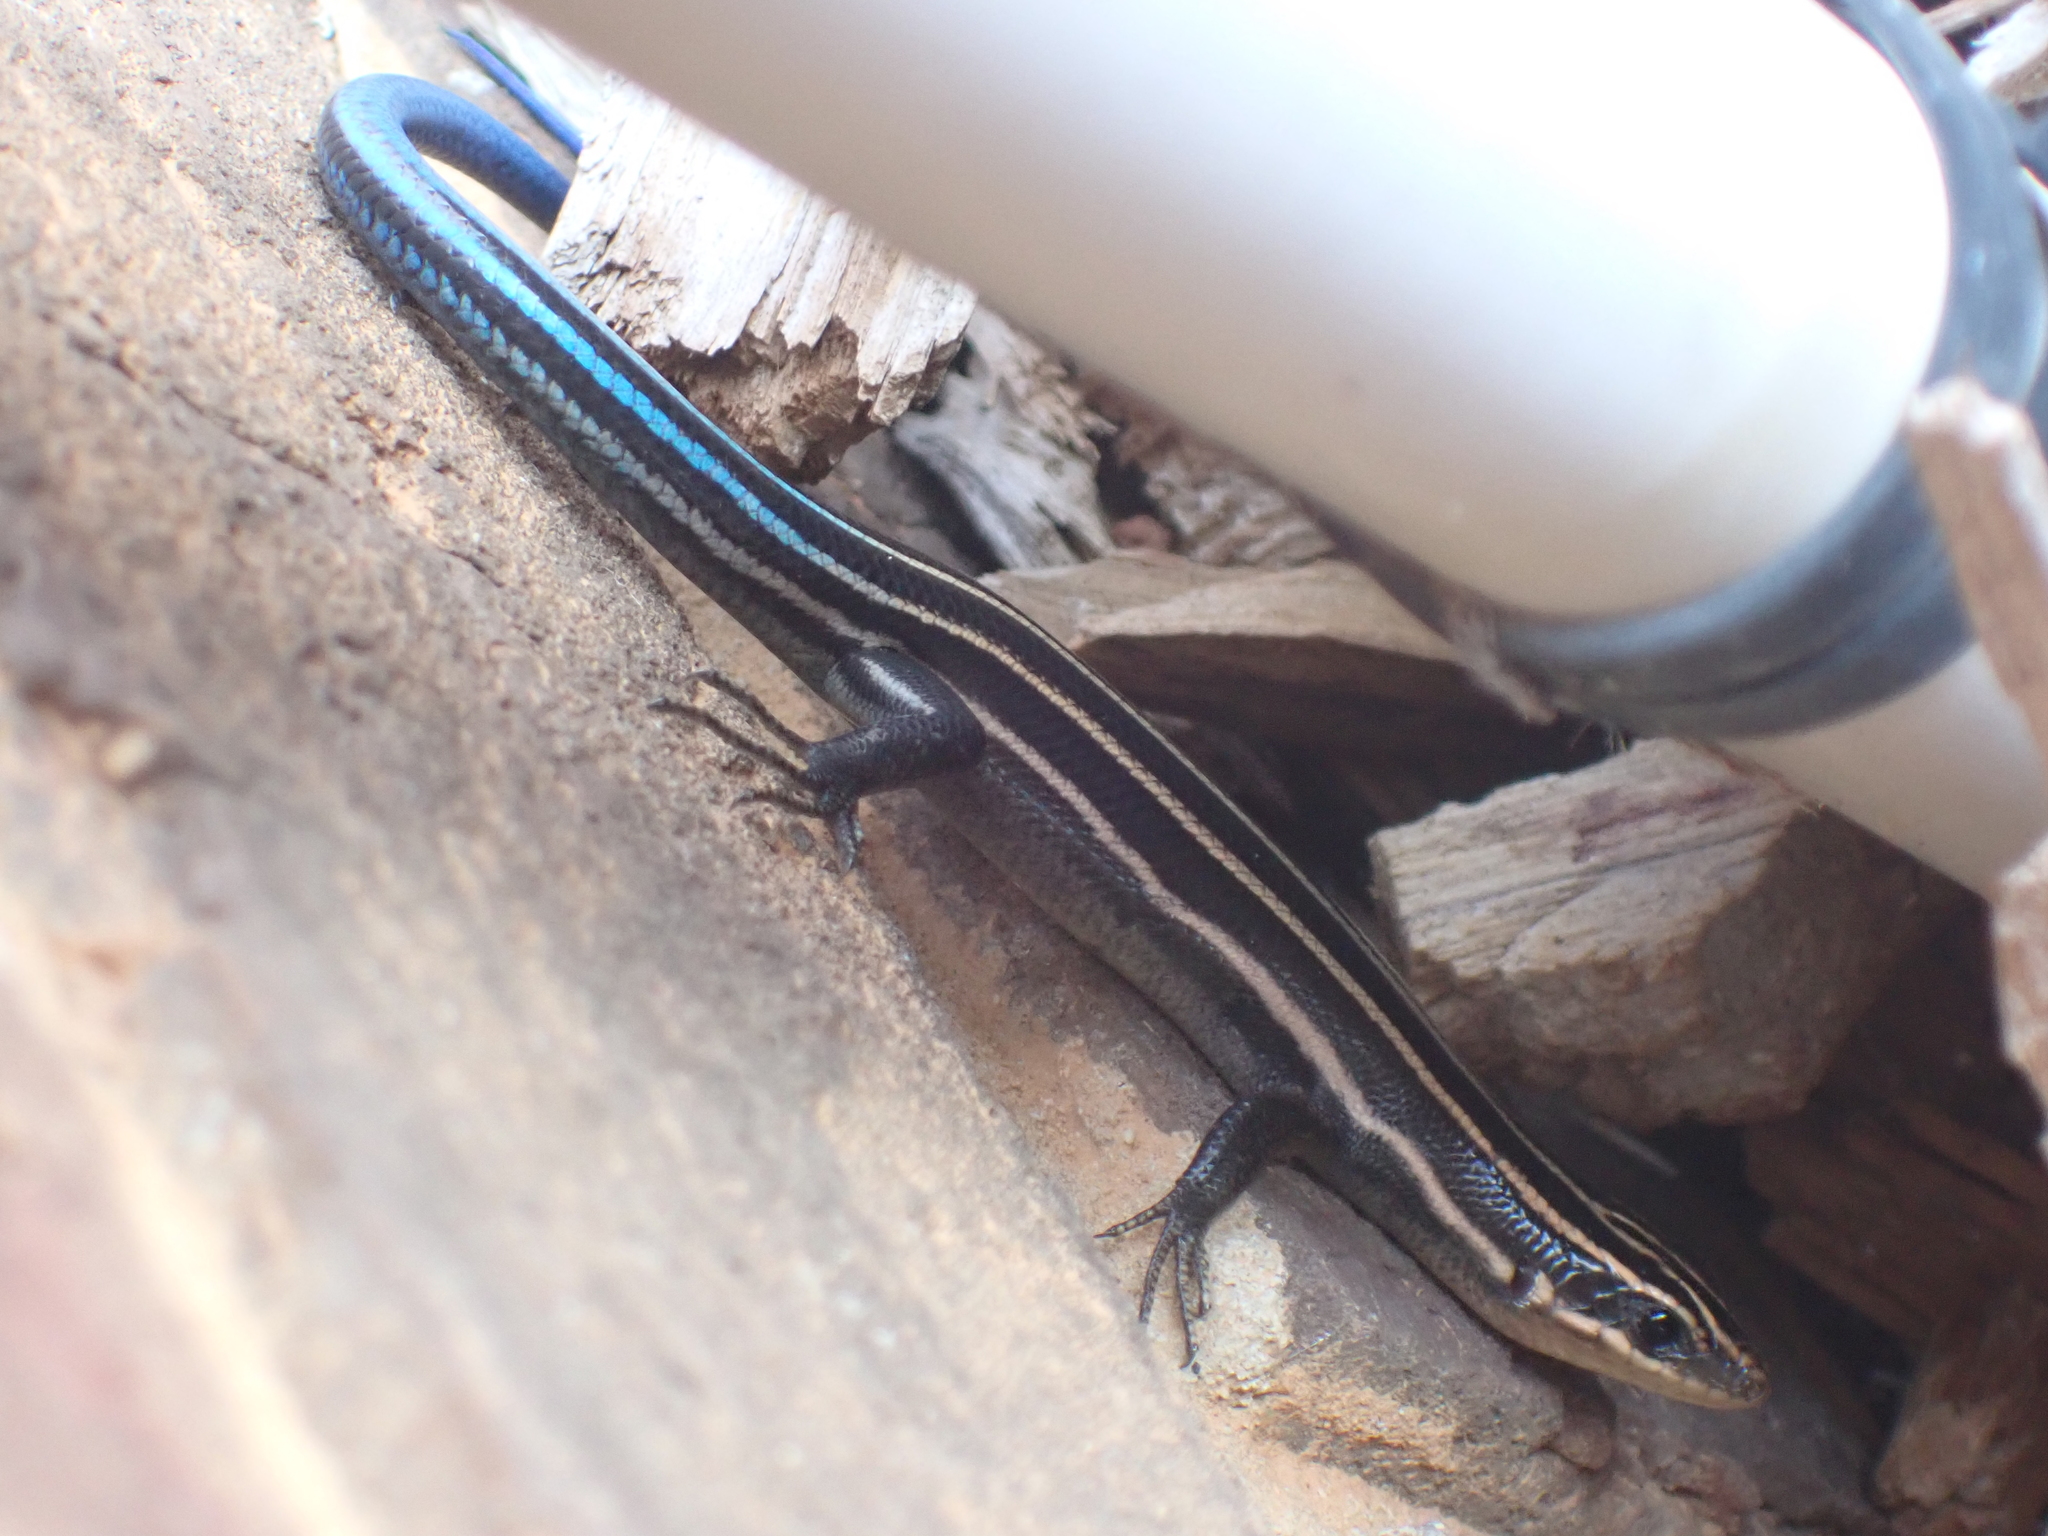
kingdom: Animalia
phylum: Chordata
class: Squamata
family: Scincidae
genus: Plestiodon
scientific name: Plestiodon fasciatus
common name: Five-lined skink
